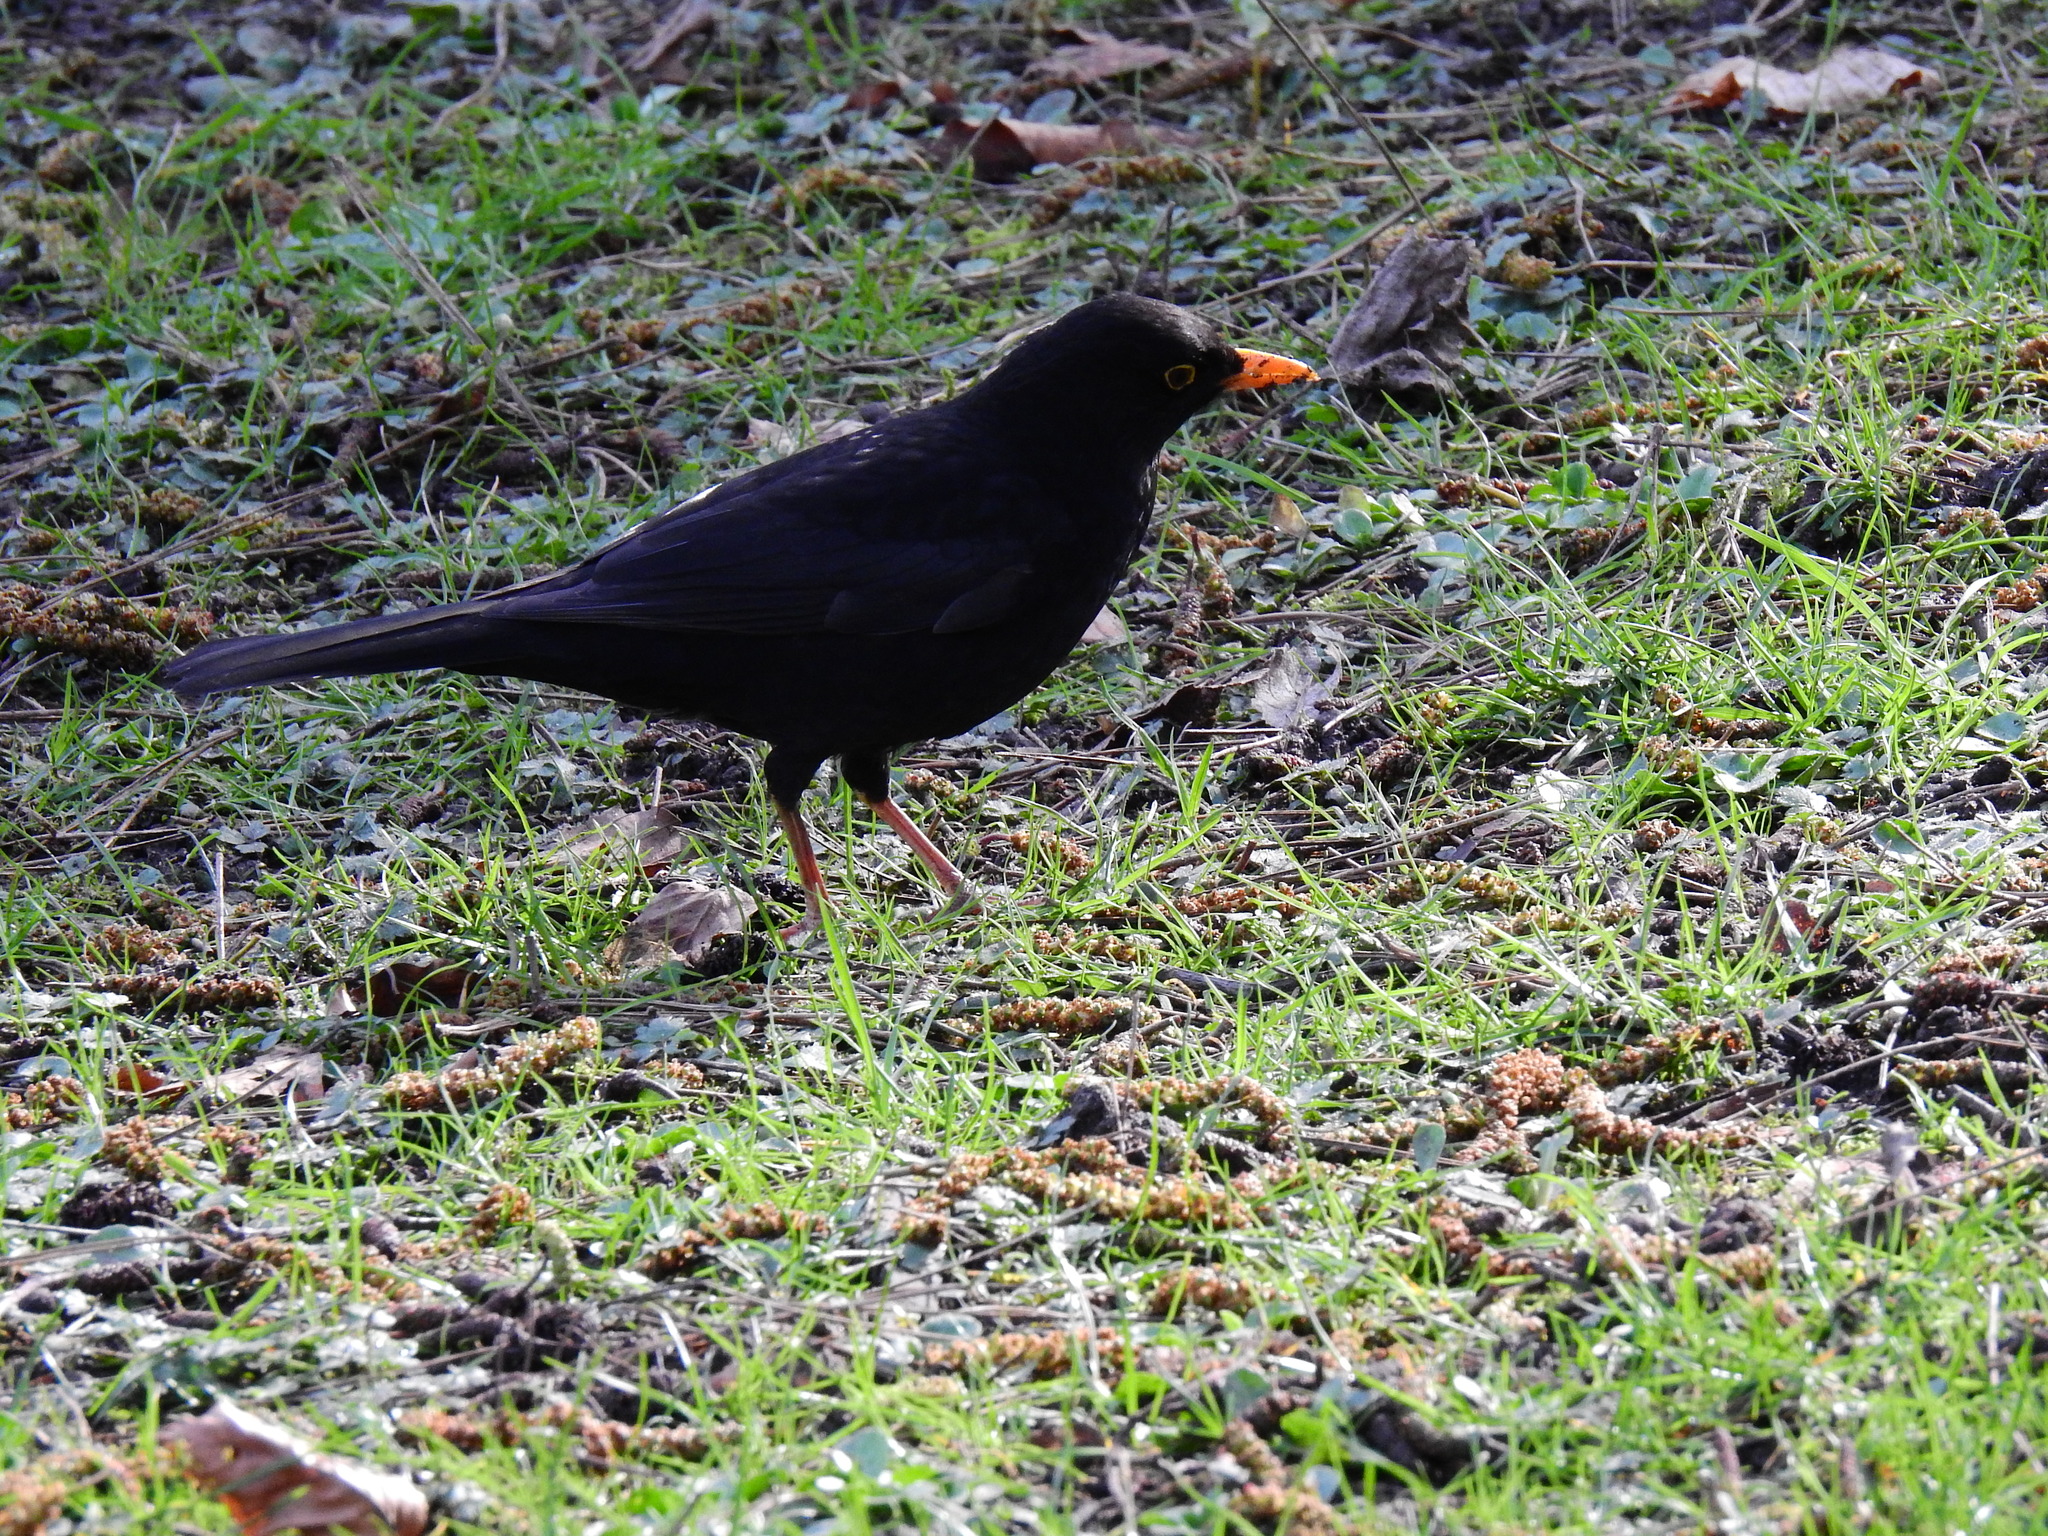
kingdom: Animalia
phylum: Chordata
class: Aves
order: Passeriformes
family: Turdidae
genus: Turdus
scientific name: Turdus merula
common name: Common blackbird
